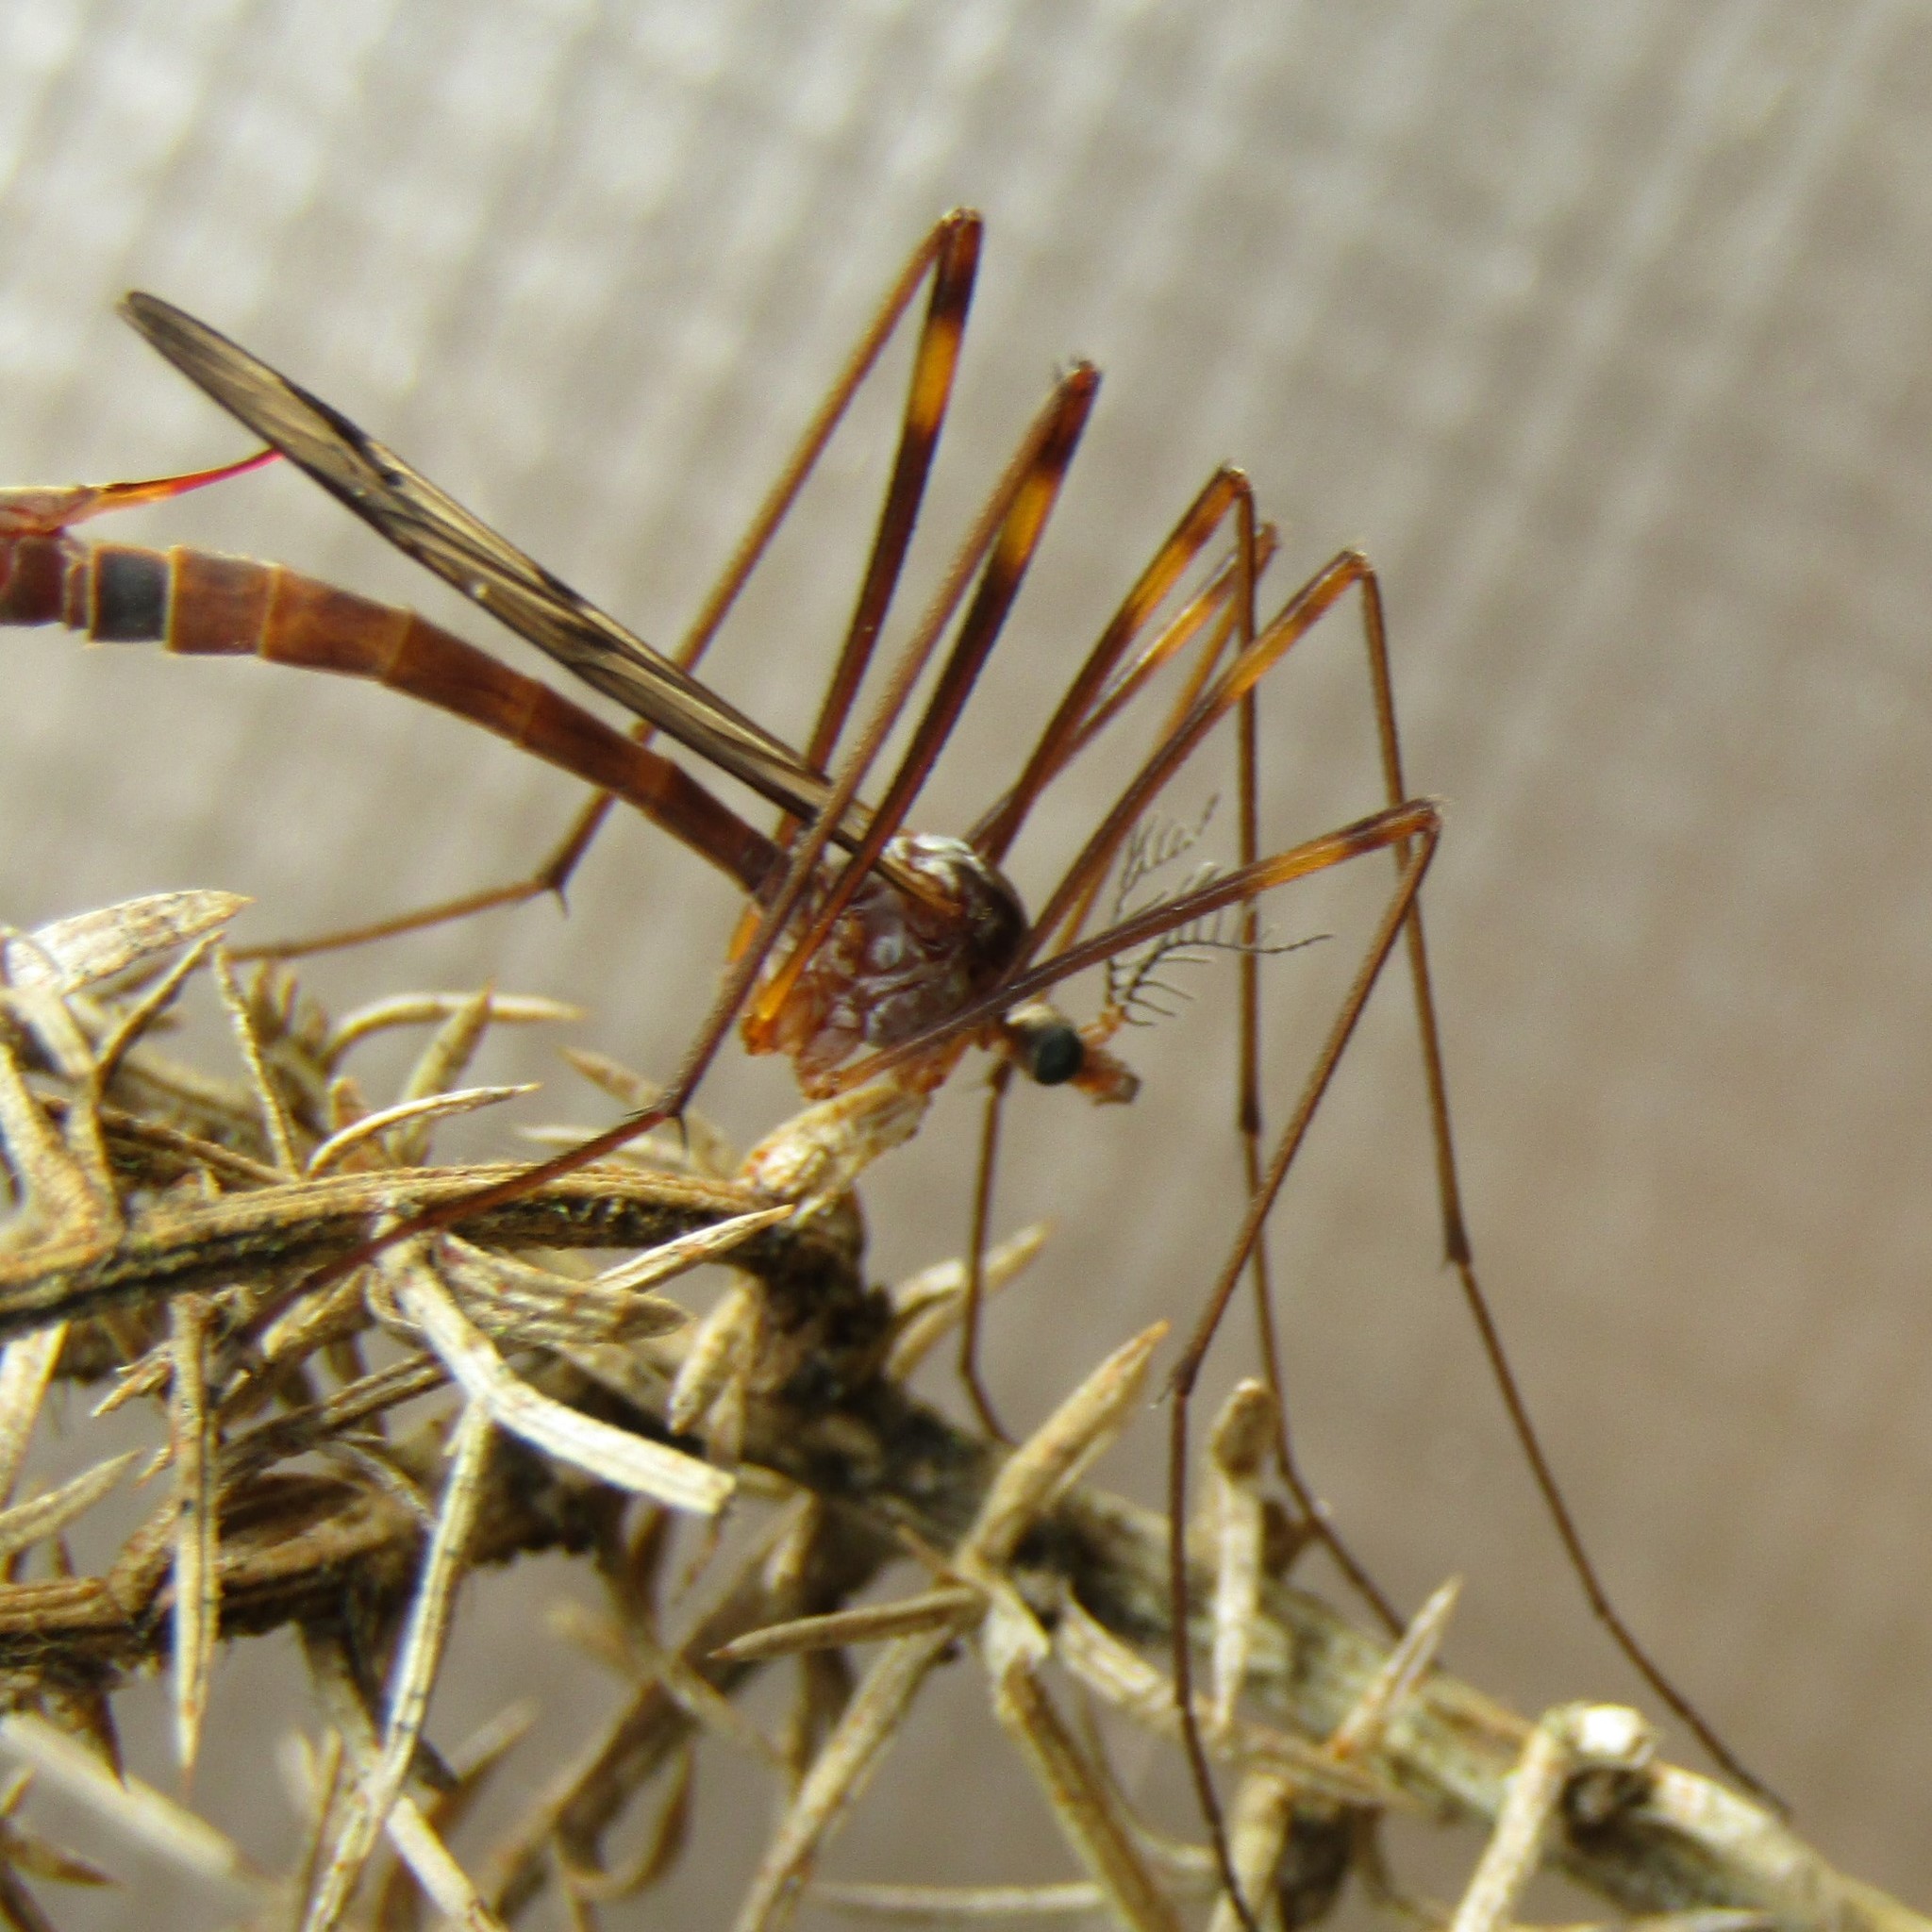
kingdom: Animalia
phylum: Arthropoda
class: Insecta
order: Diptera
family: Limoniidae
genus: Gynoplistia
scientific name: Gynoplistia subfasciata
